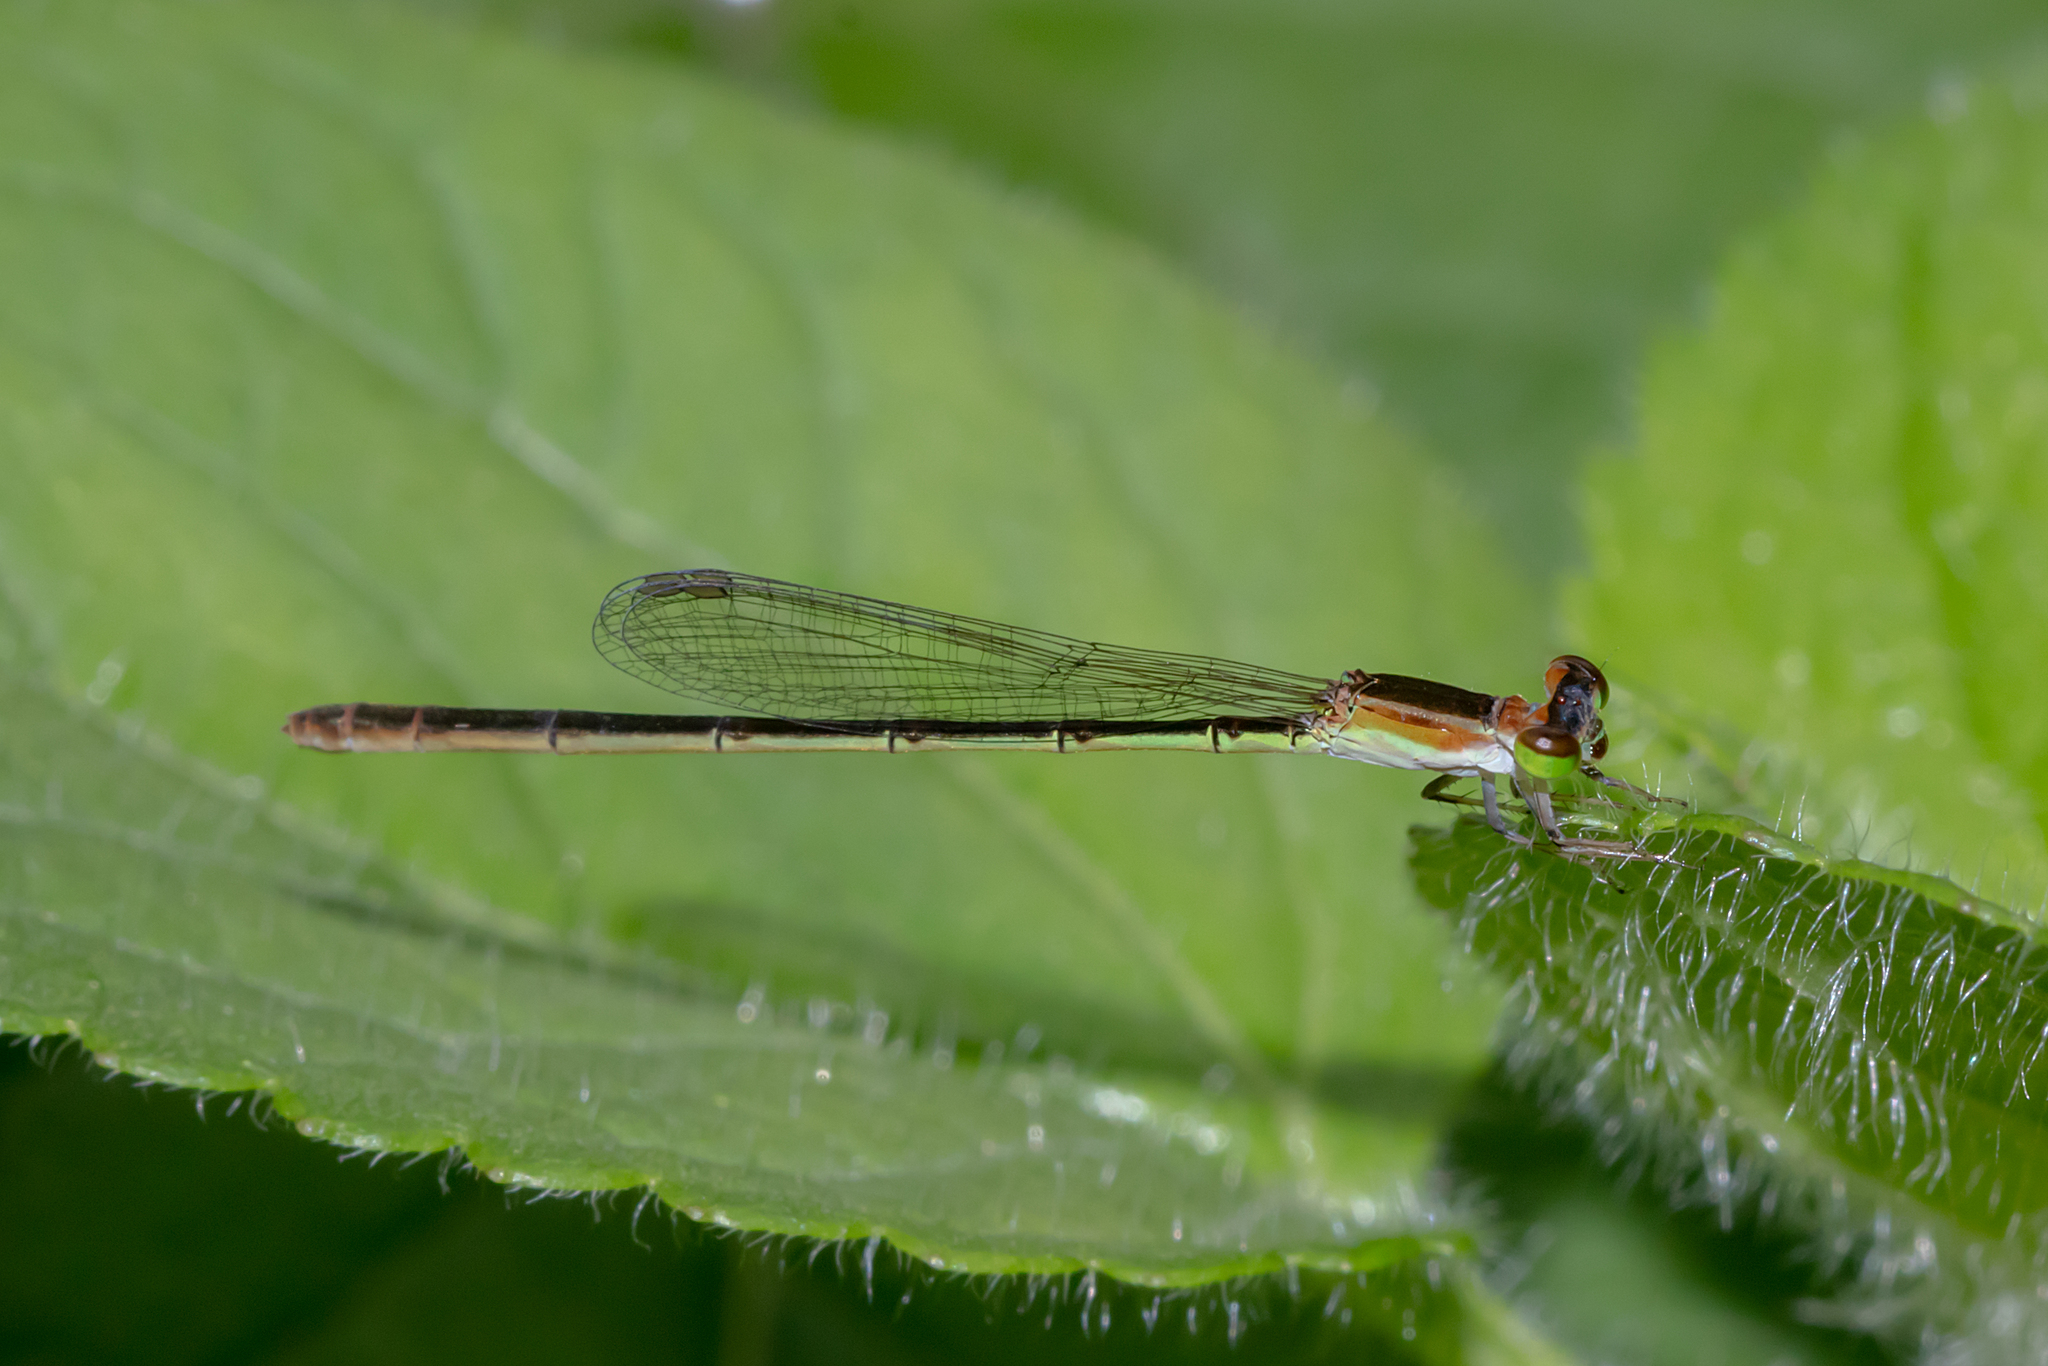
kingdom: Animalia
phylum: Arthropoda
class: Insecta
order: Odonata
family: Coenagrionidae
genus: Agriocnemis
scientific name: Agriocnemis pygmaea
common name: Pygmy wisp
